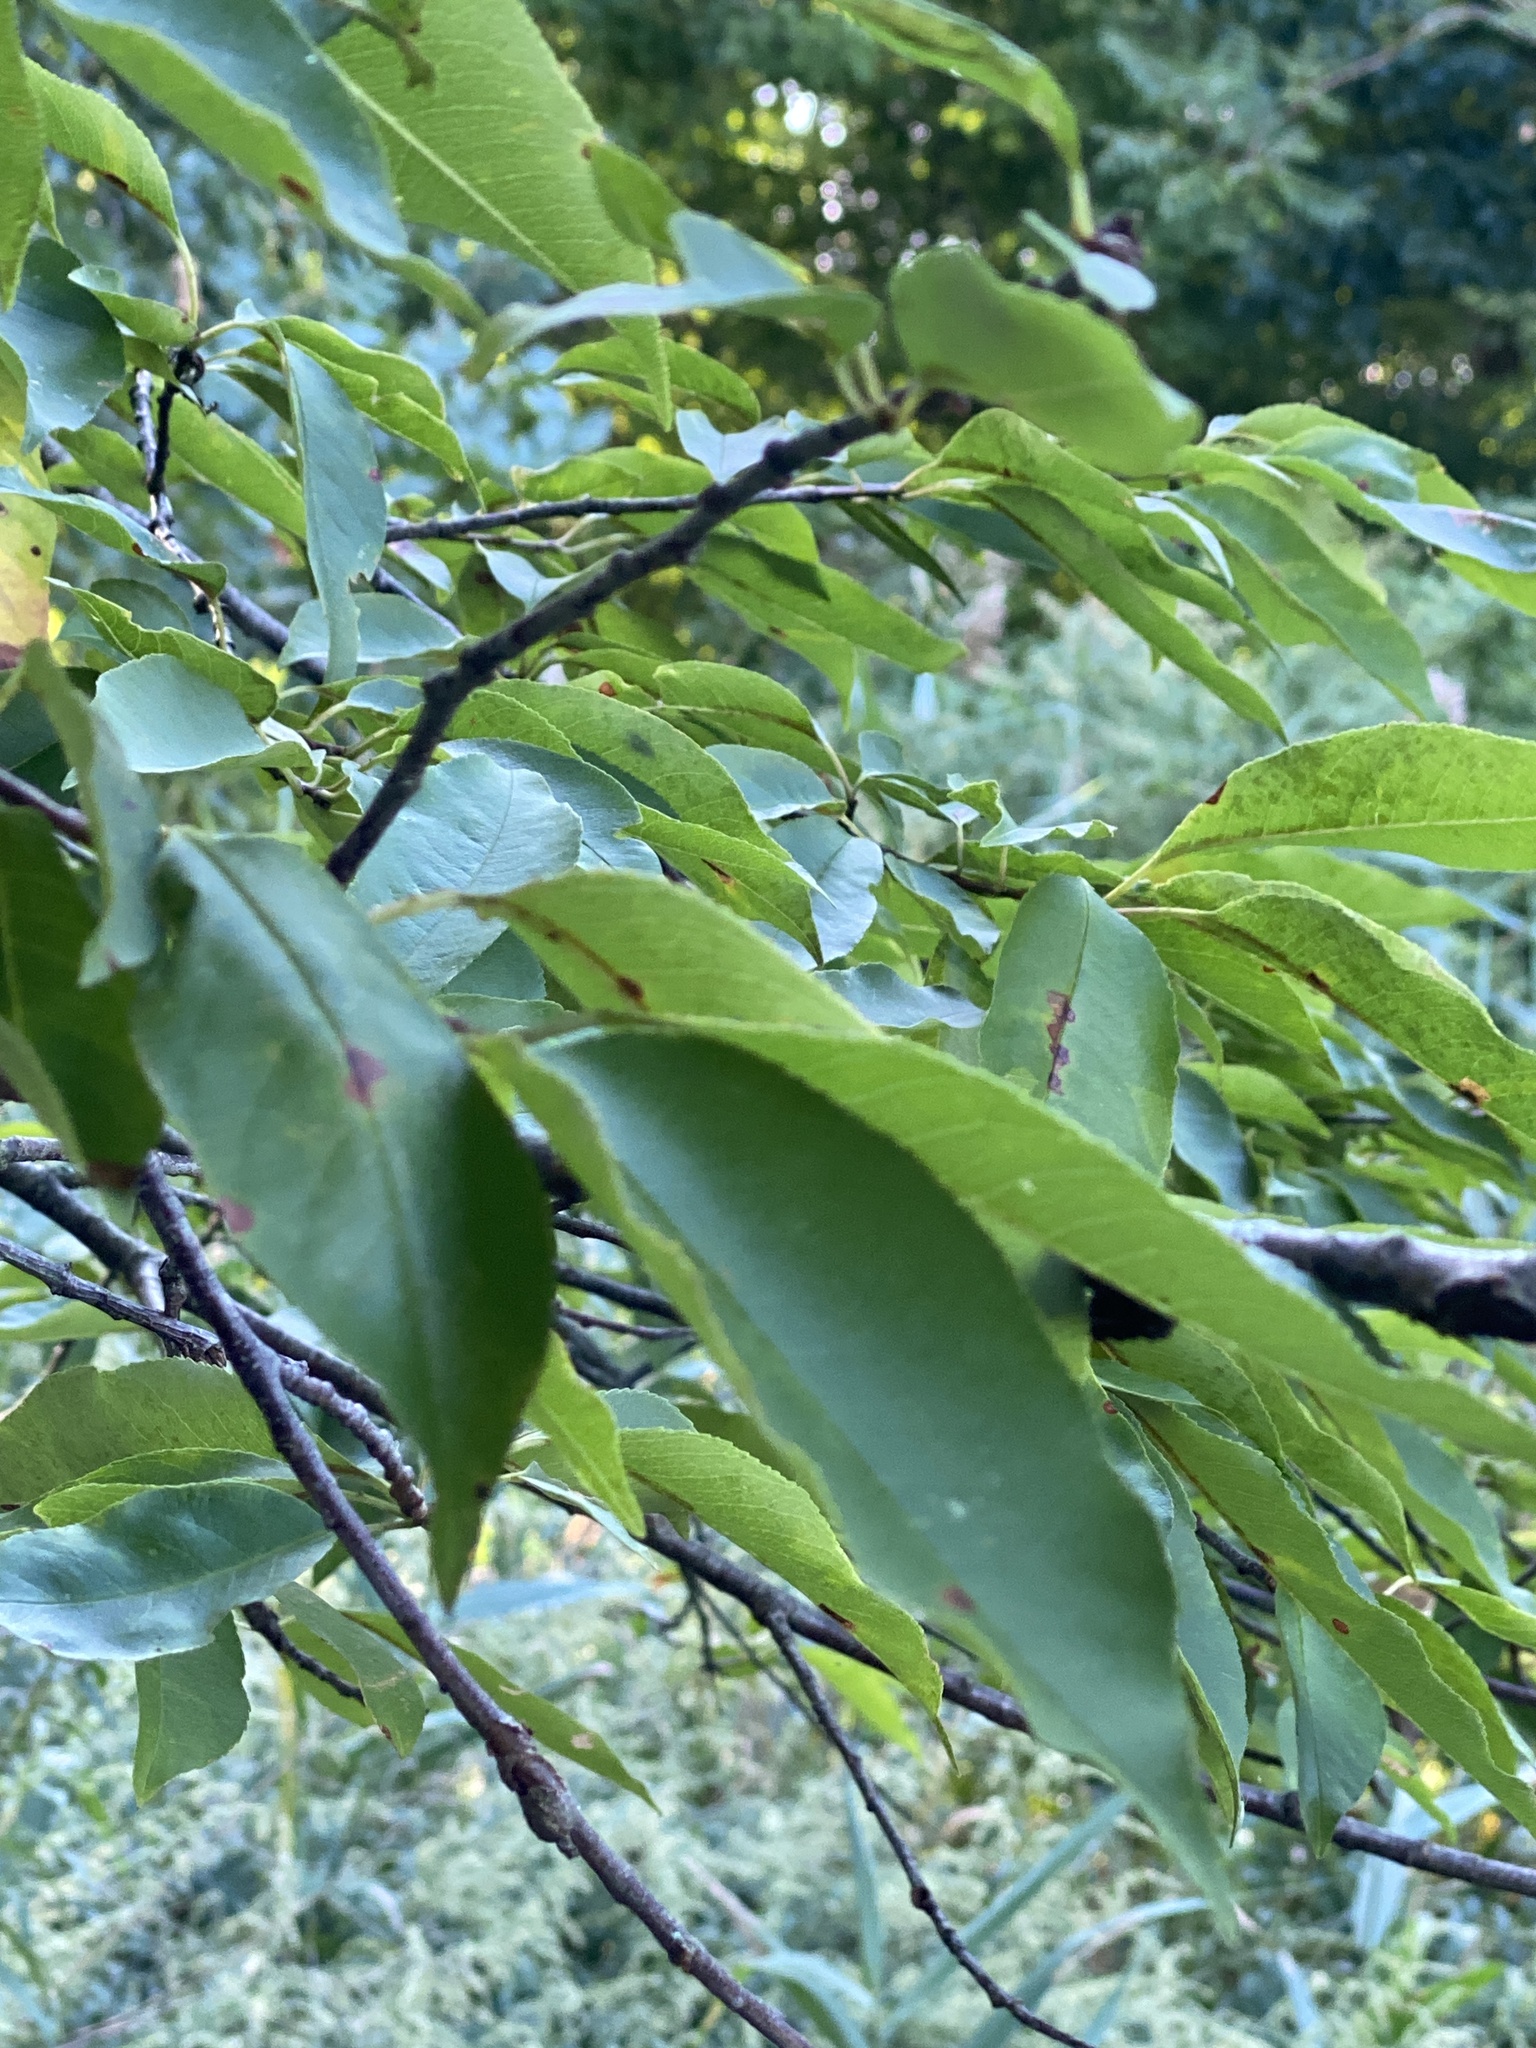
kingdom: Plantae
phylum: Tracheophyta
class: Magnoliopsida
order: Rosales
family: Rosaceae
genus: Prunus
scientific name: Prunus serotina
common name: Black cherry
